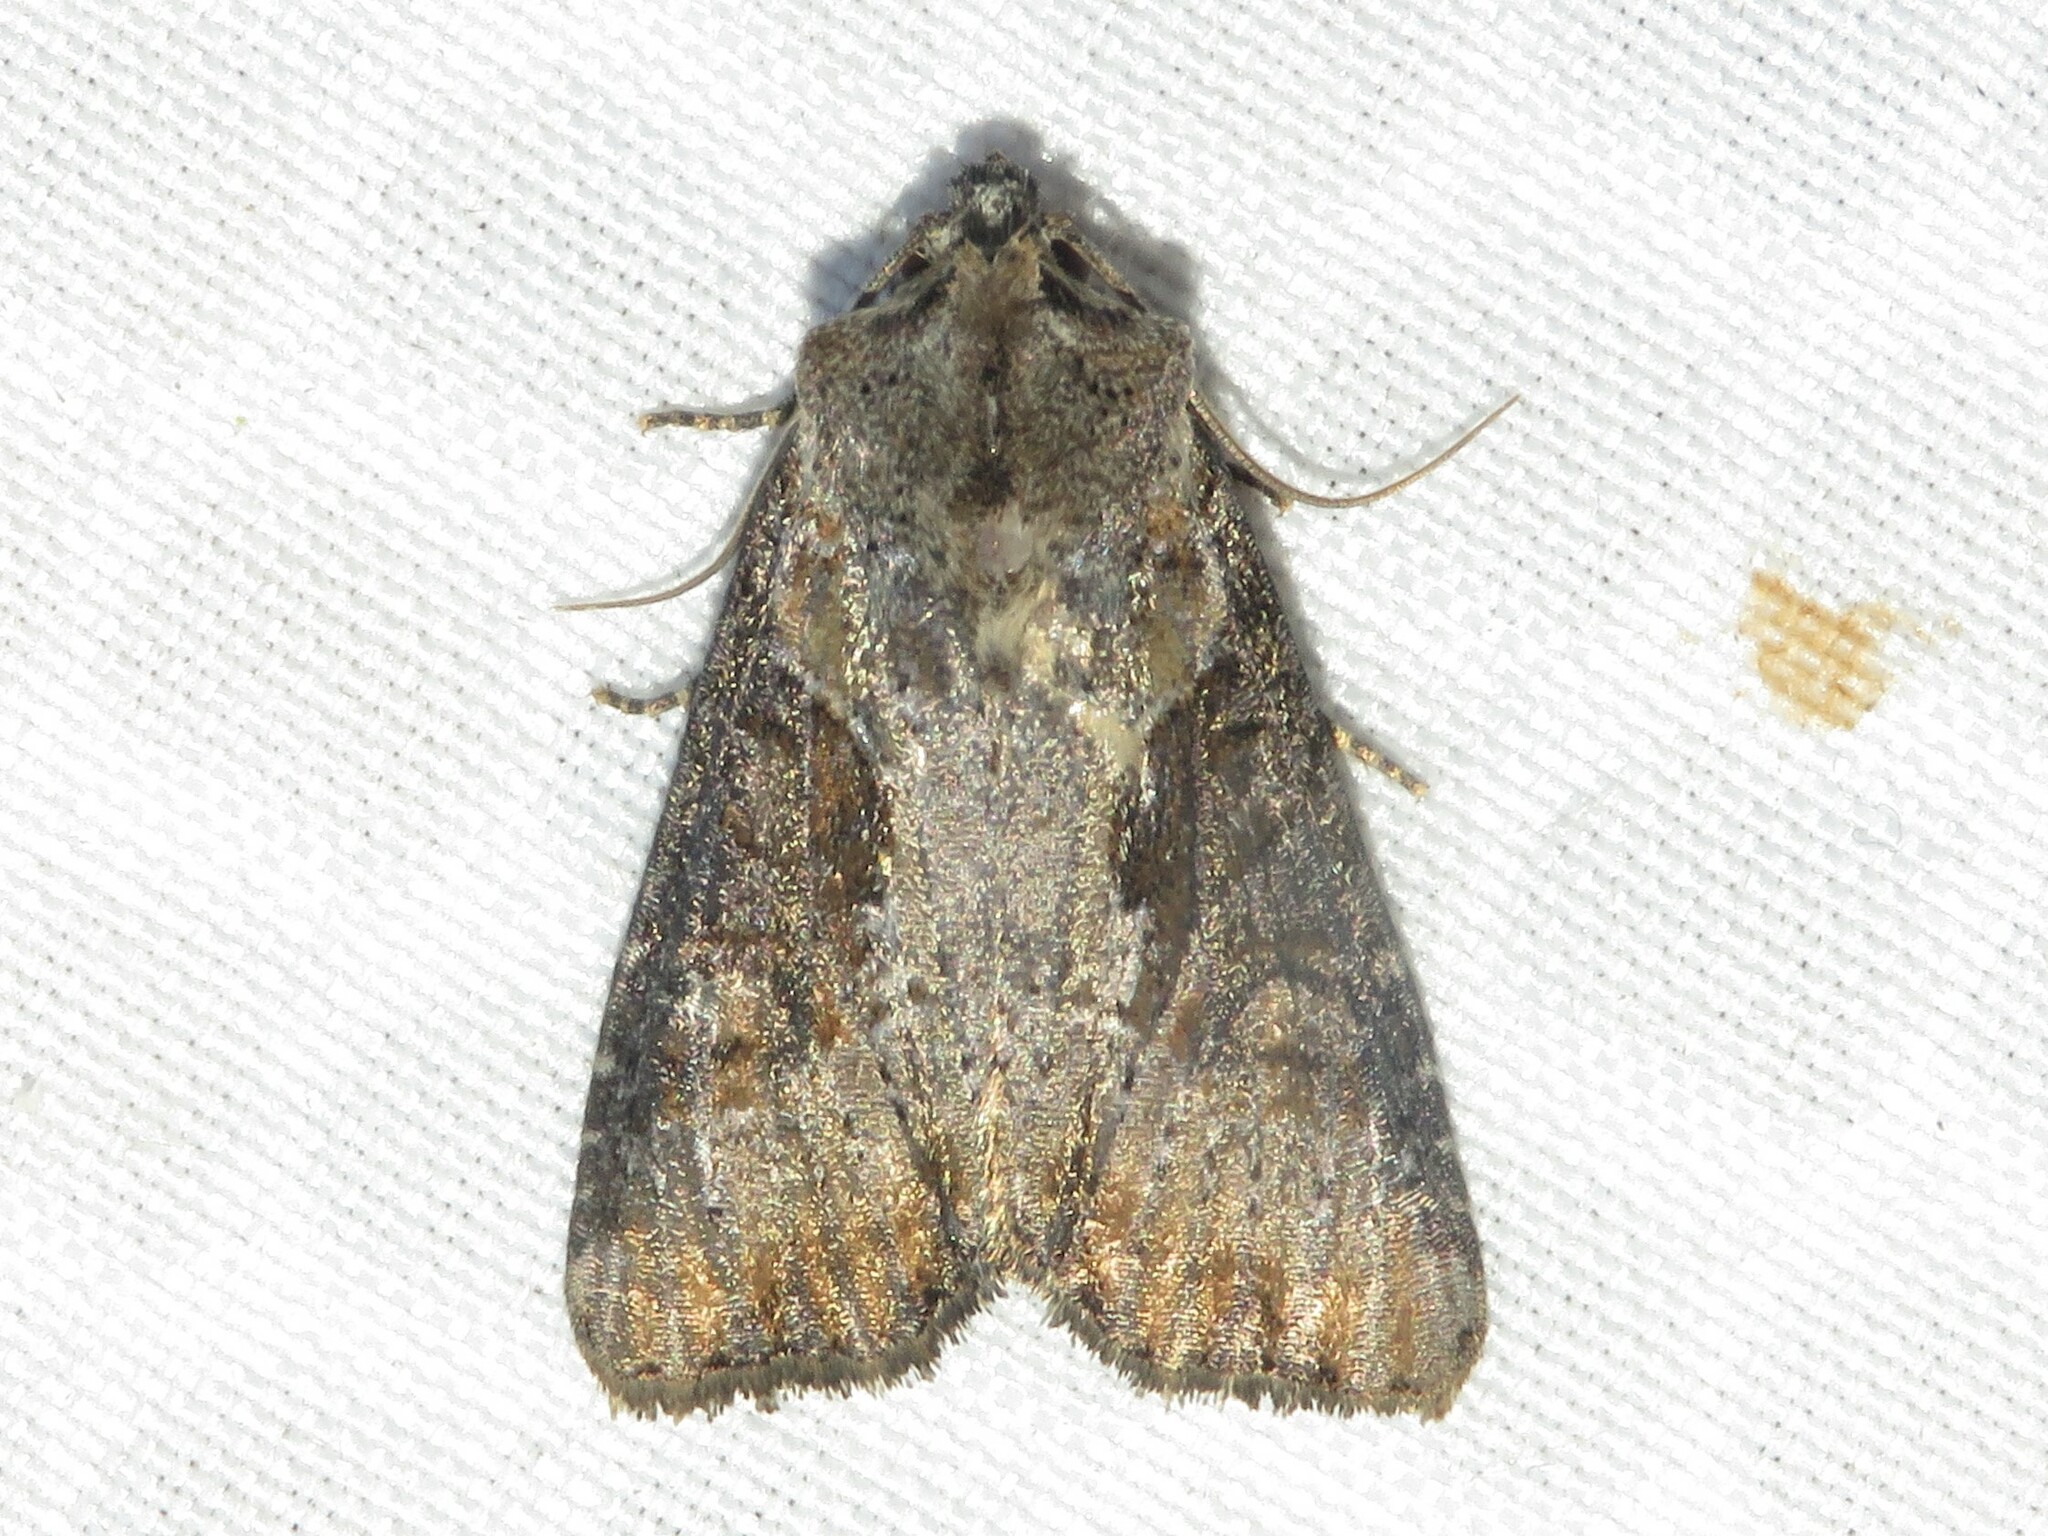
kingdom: Animalia
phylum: Arthropoda
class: Insecta
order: Lepidoptera
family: Noctuidae
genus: Lateroligia
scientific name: Lateroligia ophiogramma
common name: Double lobed
